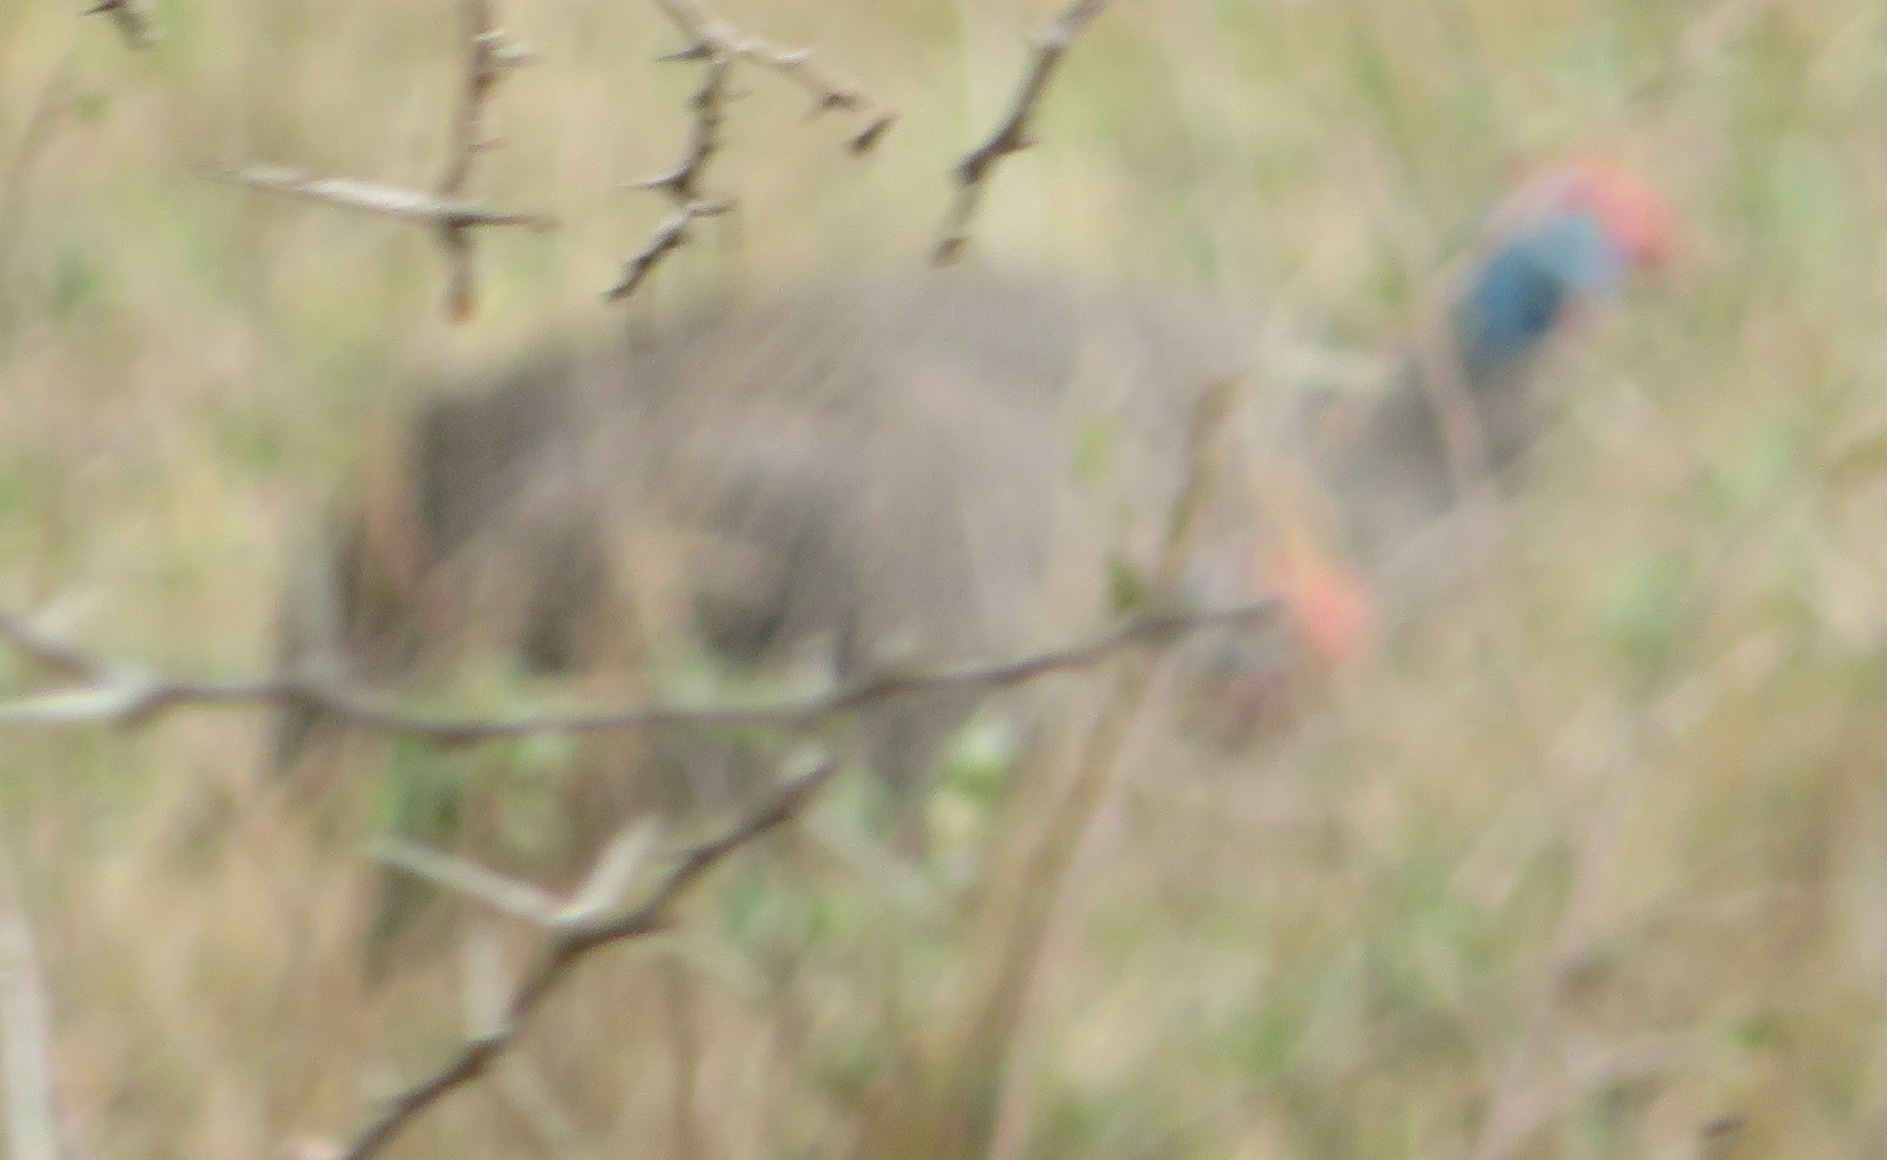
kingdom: Animalia
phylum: Chordata
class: Aves
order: Galliformes
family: Numididae
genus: Numida
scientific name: Numida meleagris
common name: Helmeted guineafowl
